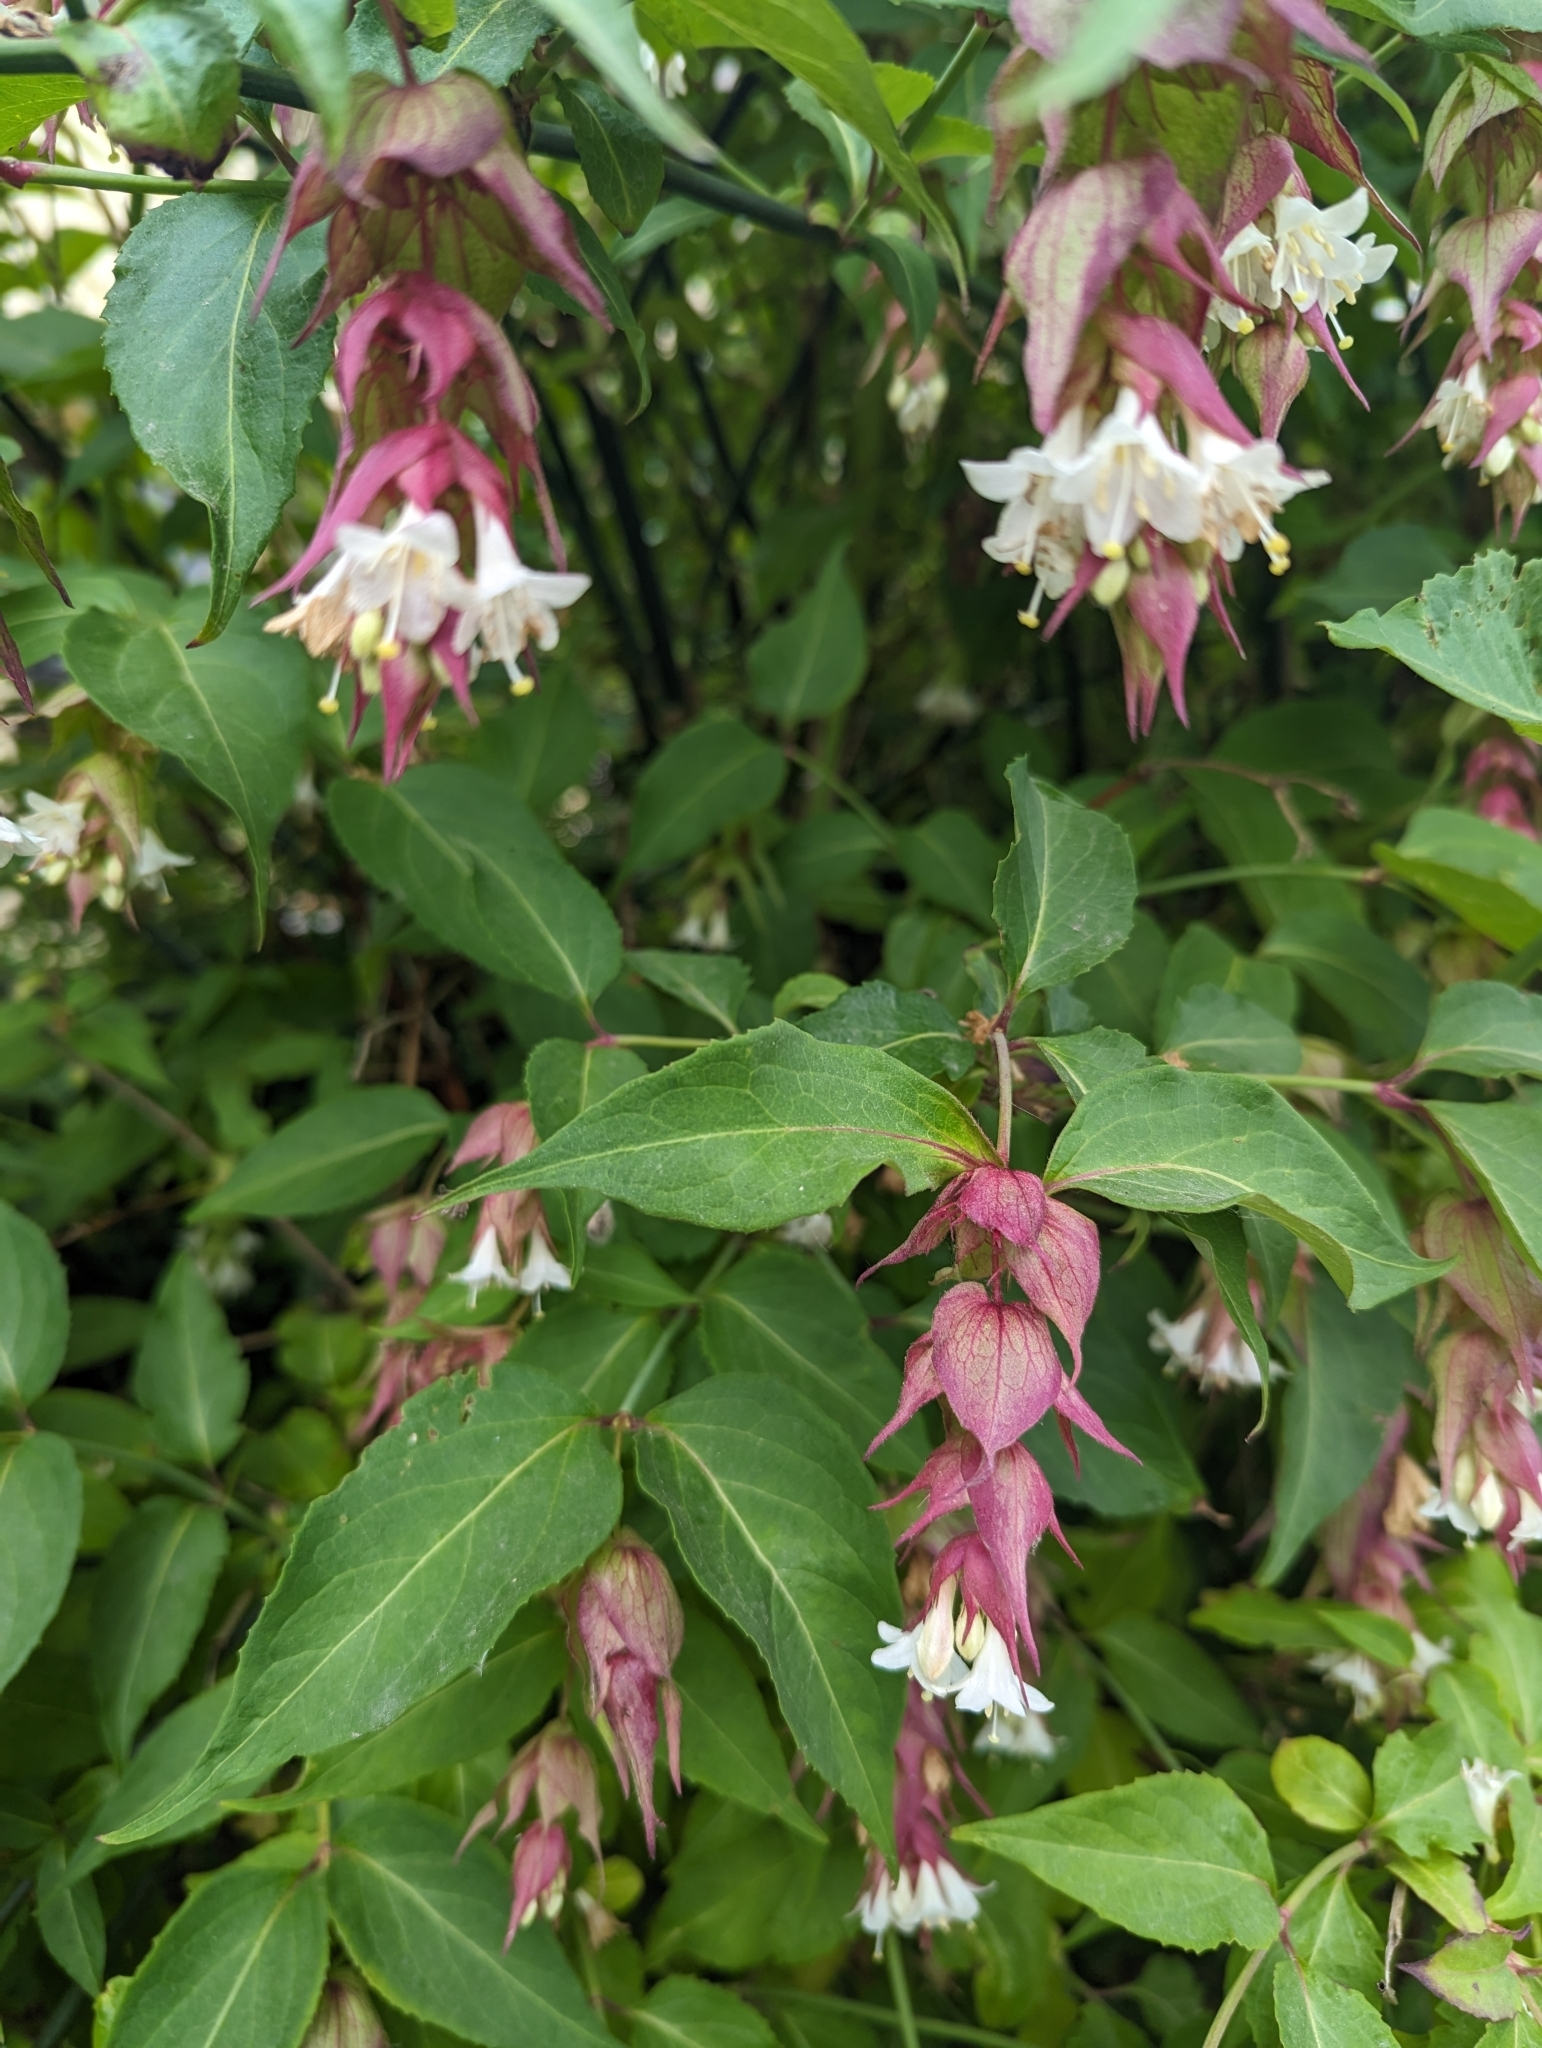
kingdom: Plantae
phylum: Tracheophyta
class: Magnoliopsida
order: Dipsacales
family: Caprifoliaceae
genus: Leycesteria
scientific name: Leycesteria formosa
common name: Himalayan honeysuckle
